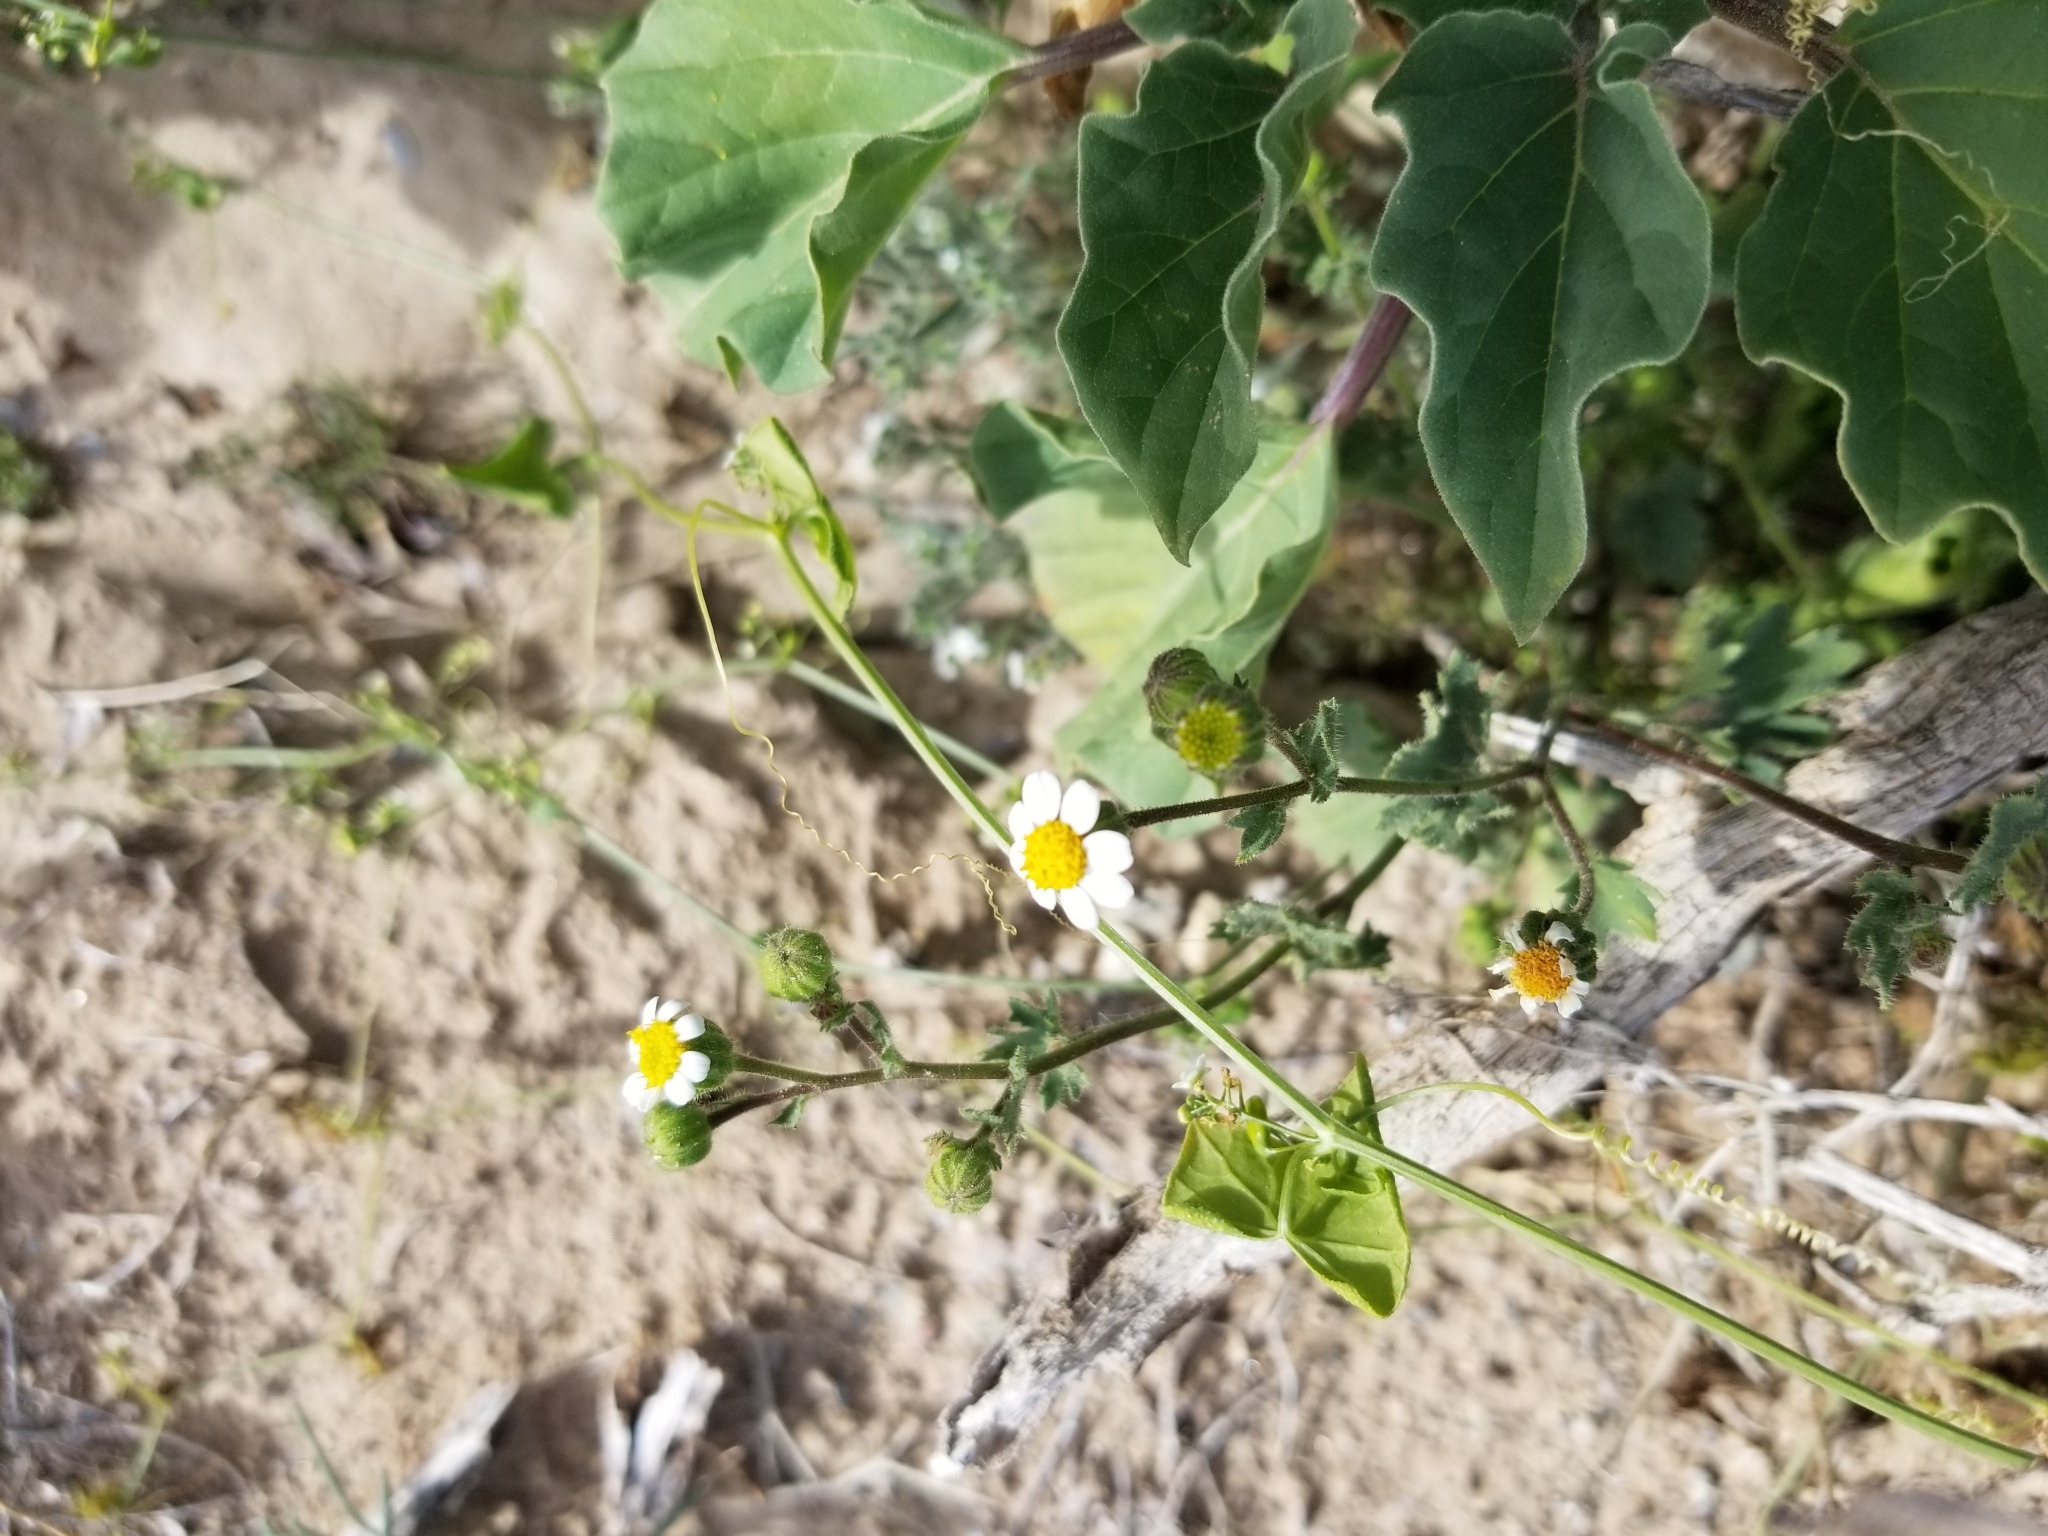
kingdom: Plantae
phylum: Tracheophyta
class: Magnoliopsida
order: Asterales
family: Asteraceae
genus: Laphamia
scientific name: Laphamia emoryi
